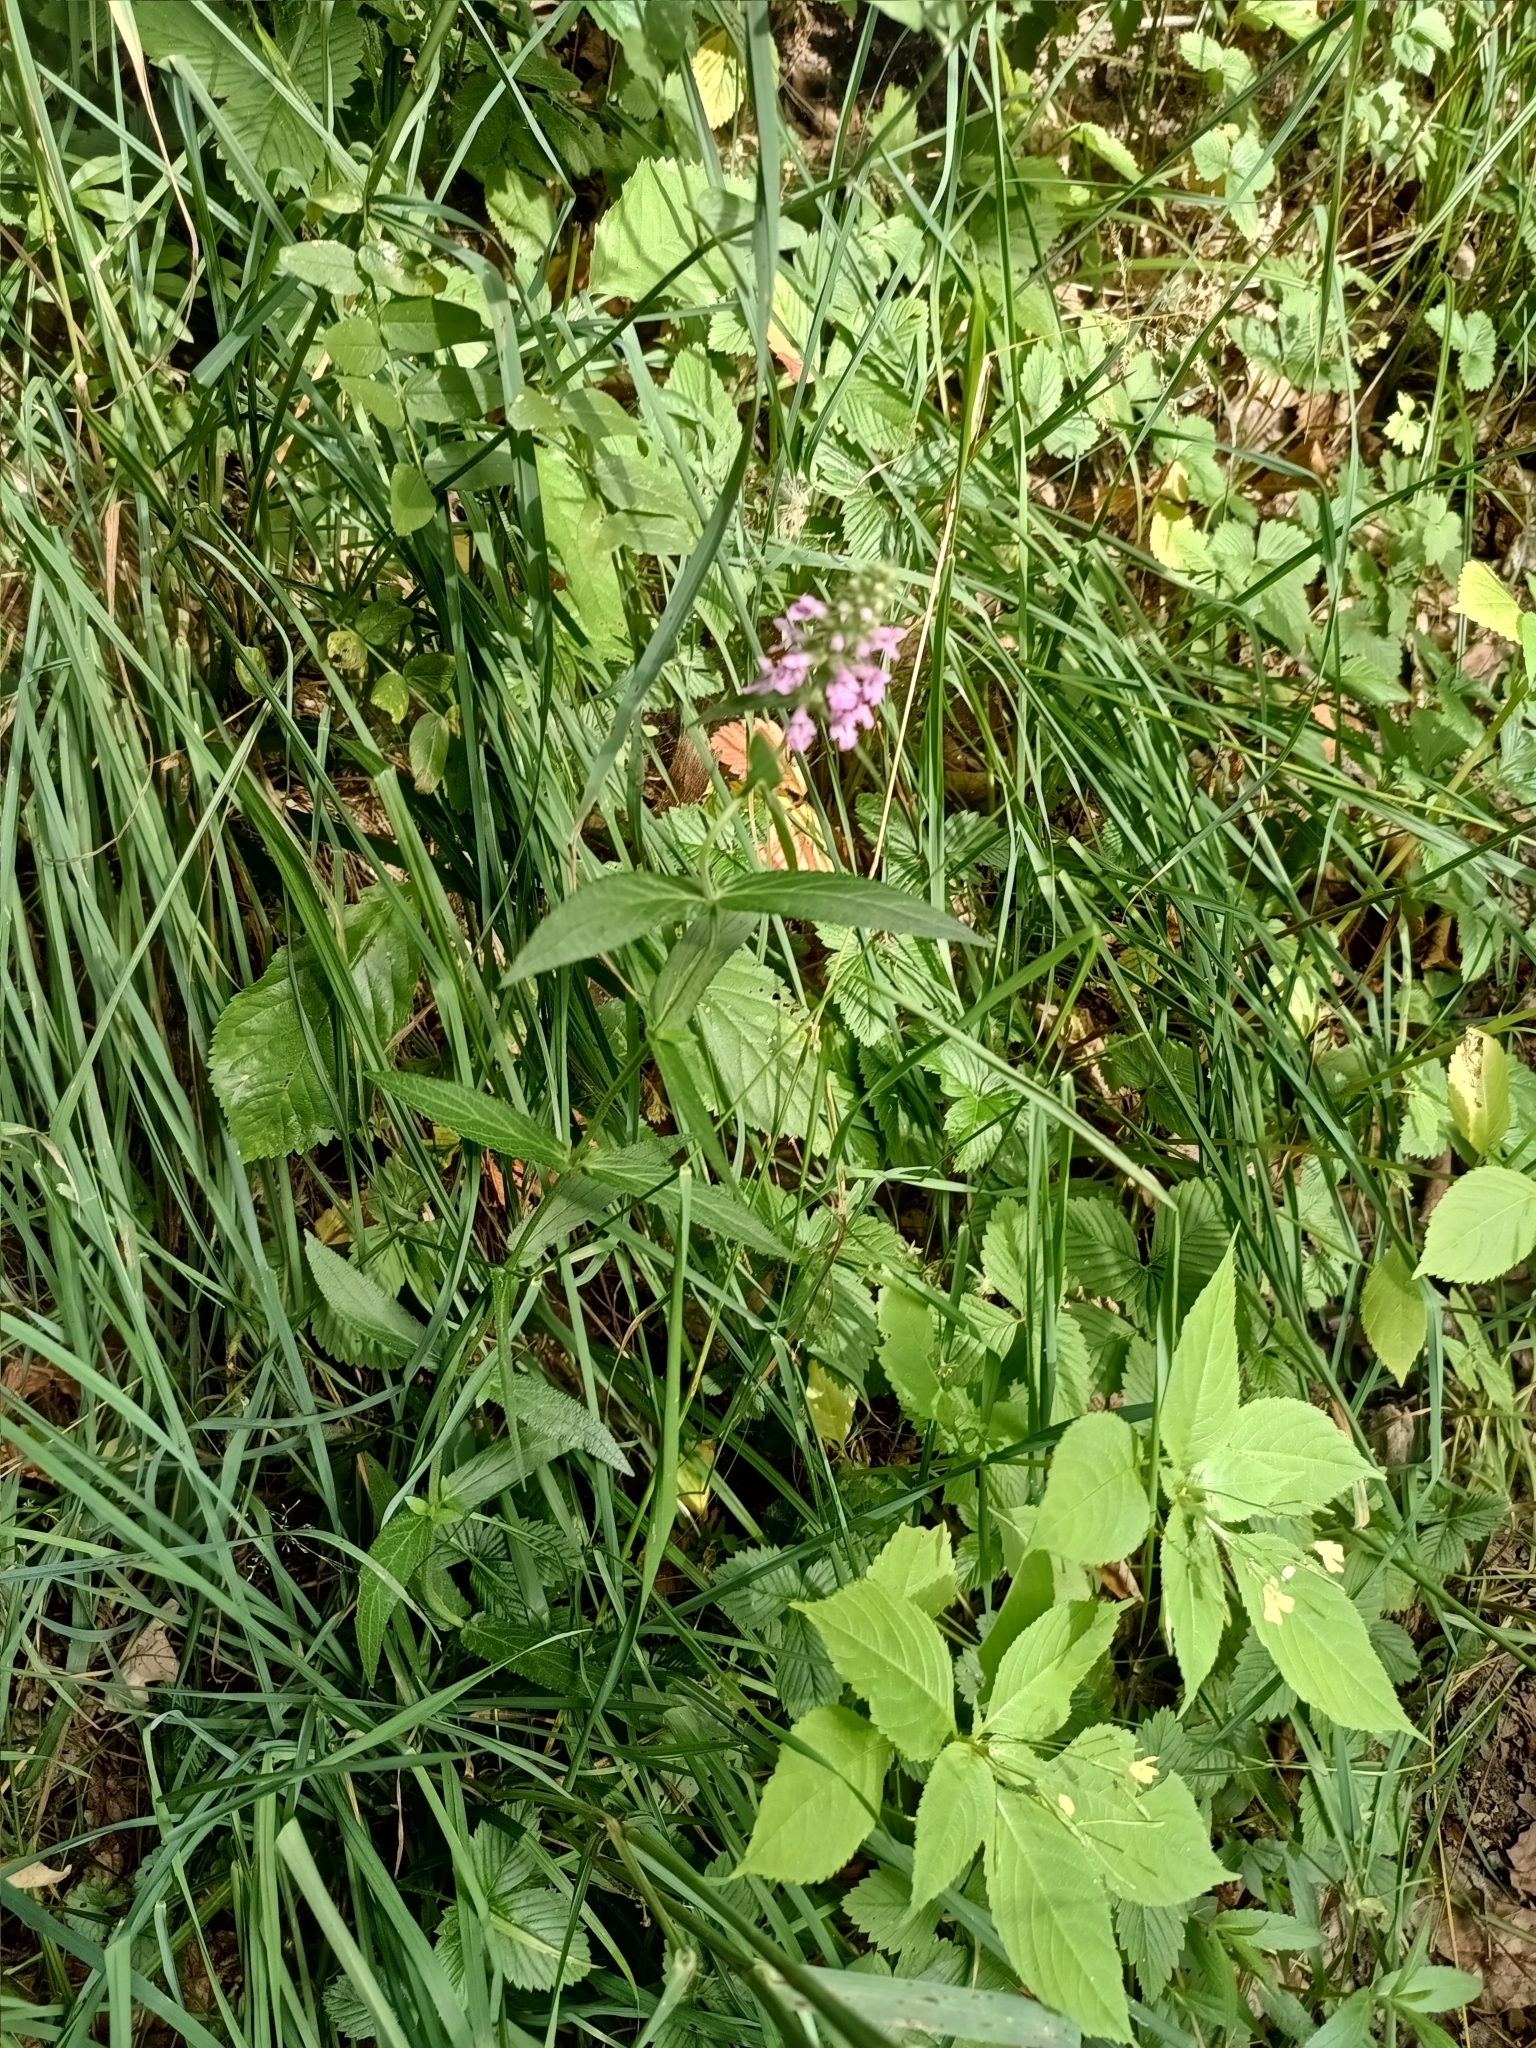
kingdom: Plantae
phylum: Tracheophyta
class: Magnoliopsida
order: Lamiales
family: Lamiaceae
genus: Stachys
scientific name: Stachys palustris
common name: Marsh woundwort
